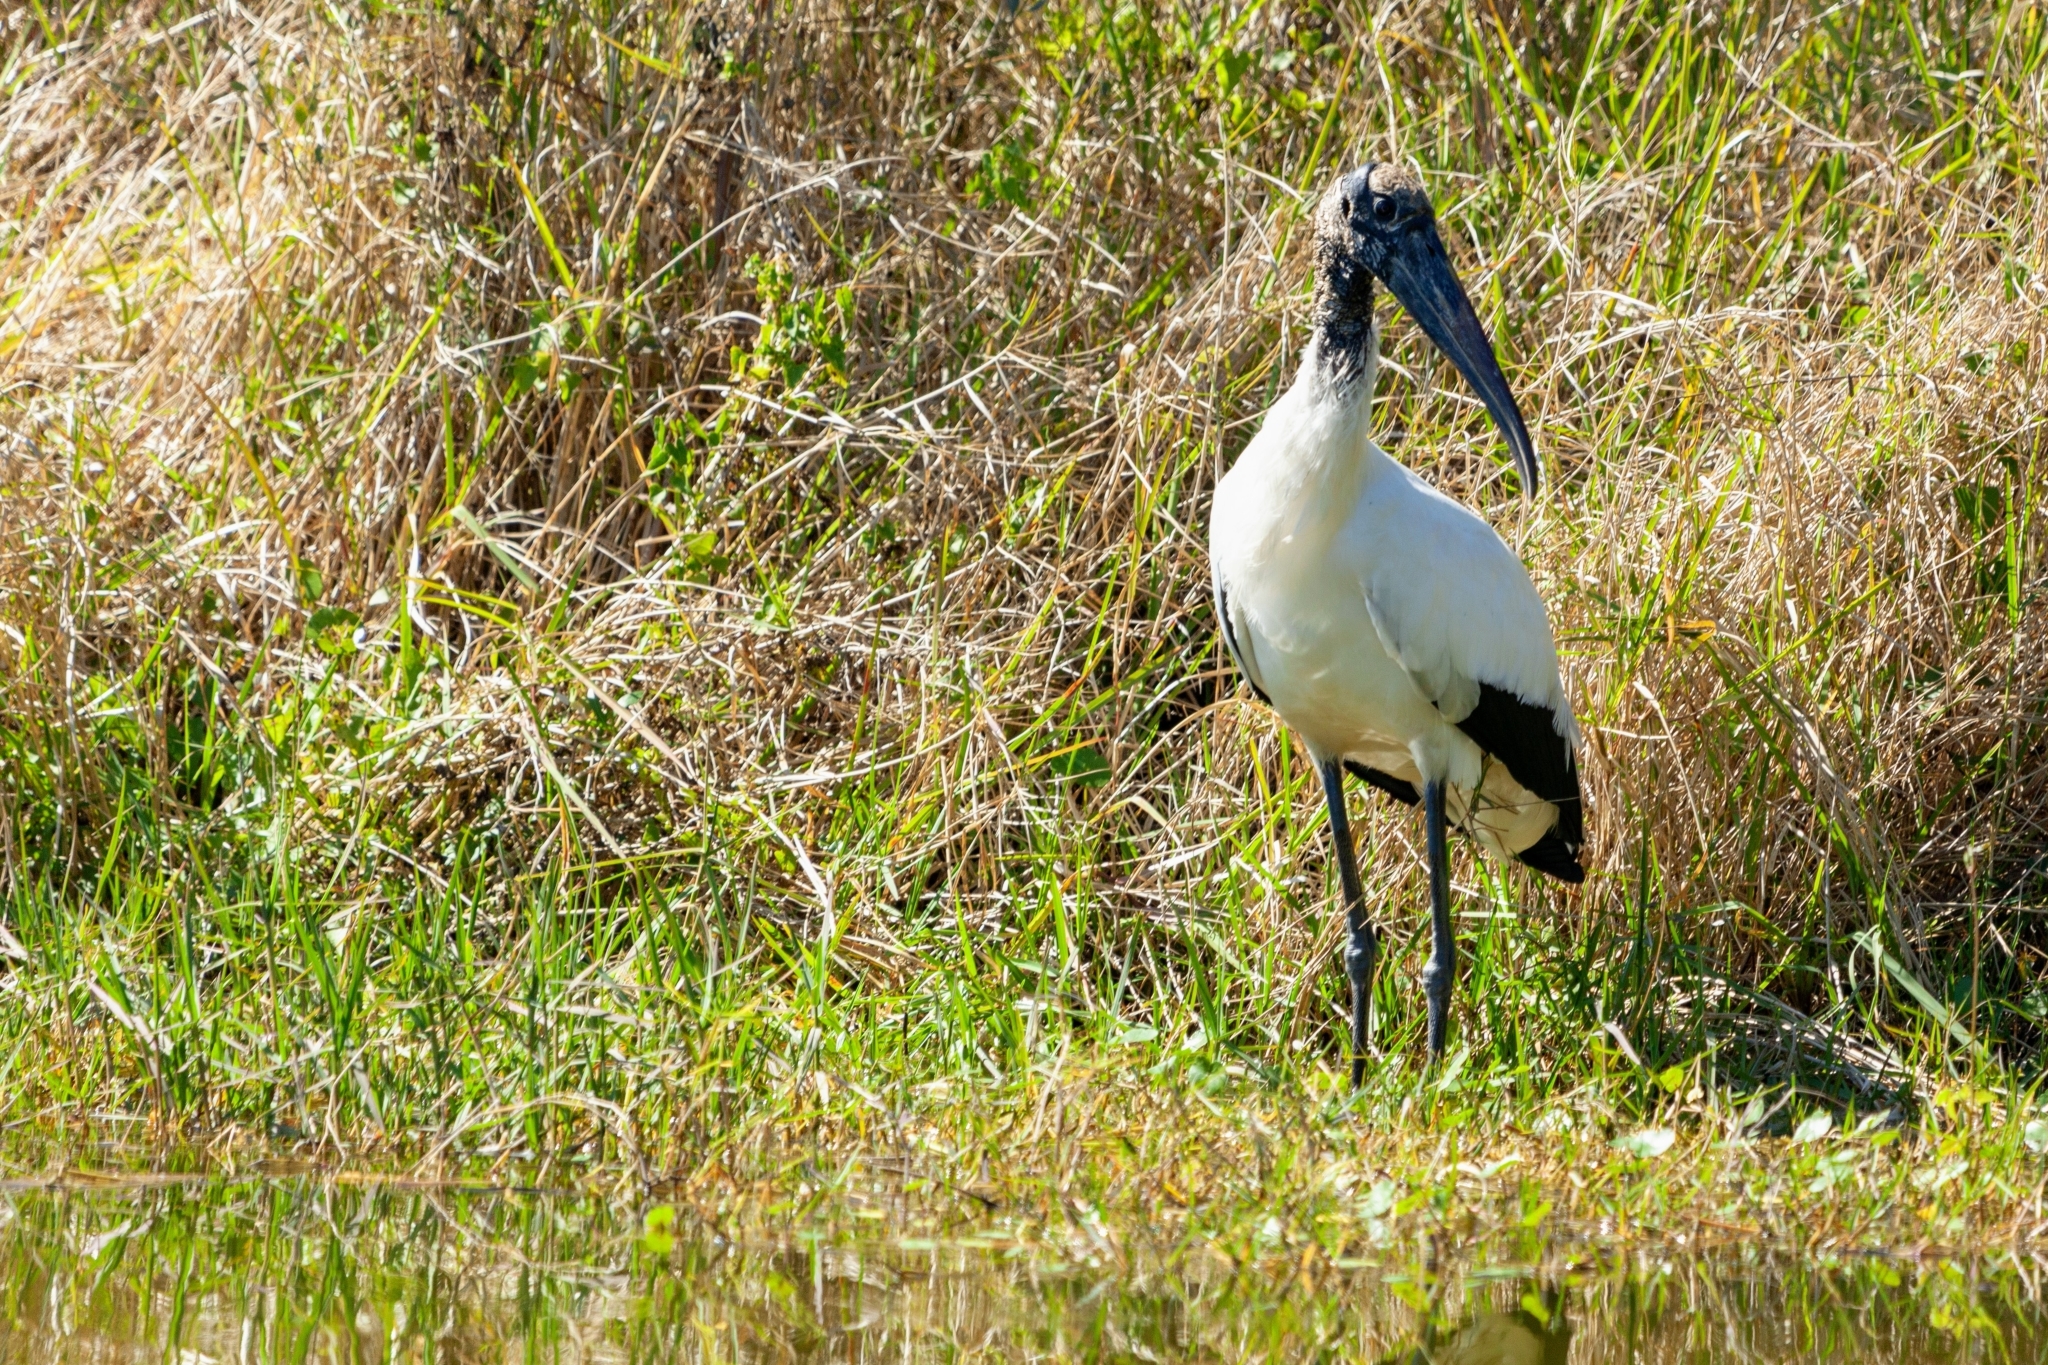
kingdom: Animalia
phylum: Chordata
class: Aves
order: Ciconiiformes
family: Ciconiidae
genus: Mycteria
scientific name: Mycteria americana
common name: Wood stork
